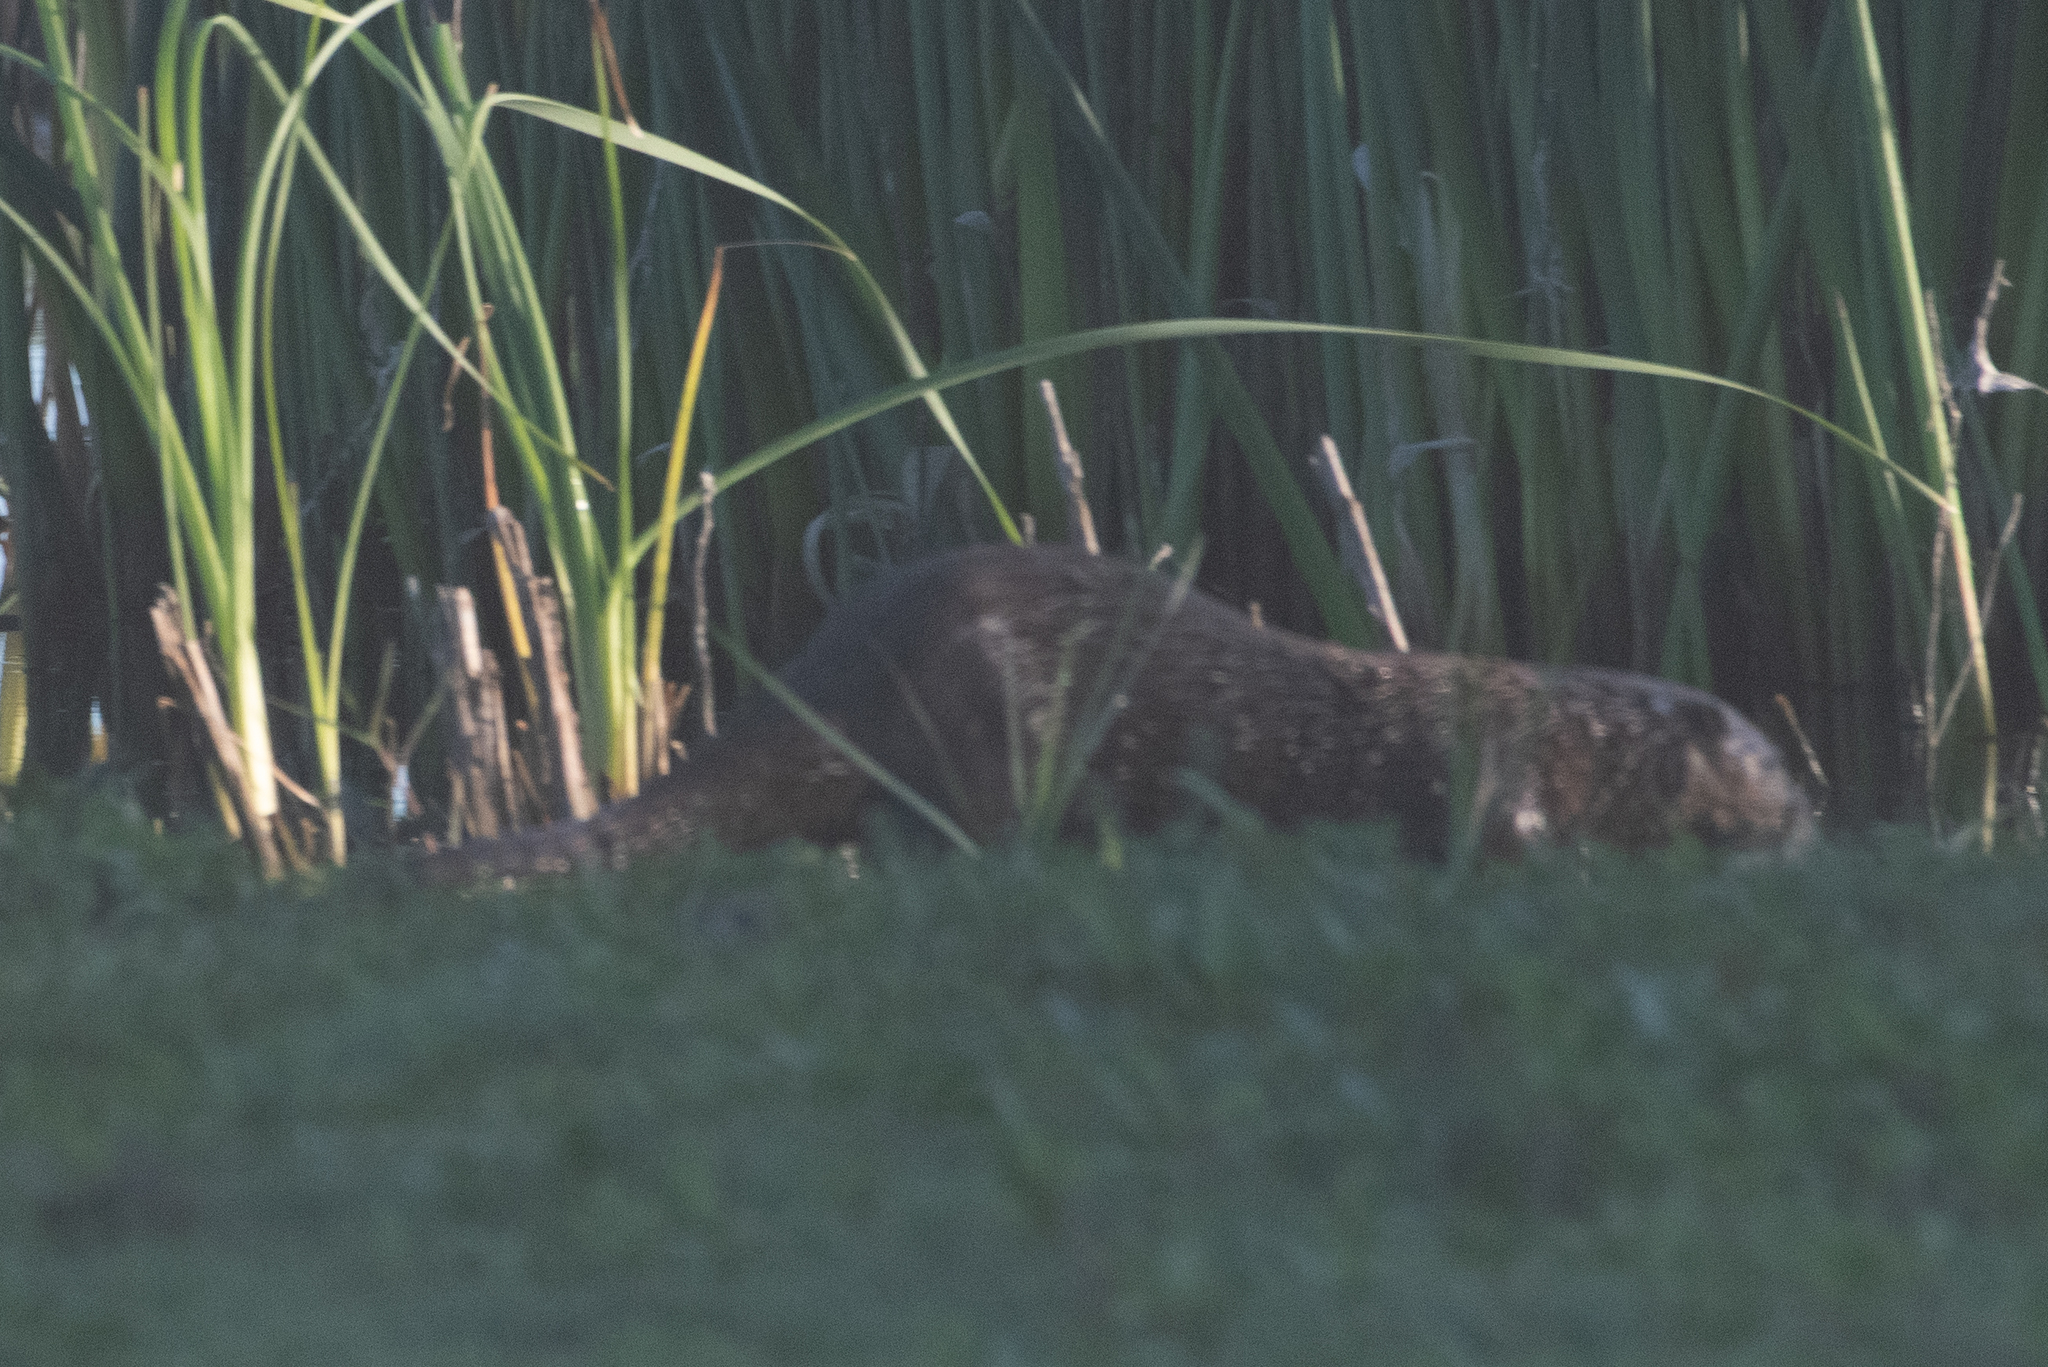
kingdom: Animalia
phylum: Chordata
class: Mammalia
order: Carnivora
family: Mustelidae
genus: Lontra
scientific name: Lontra canadensis
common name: North american river otter
